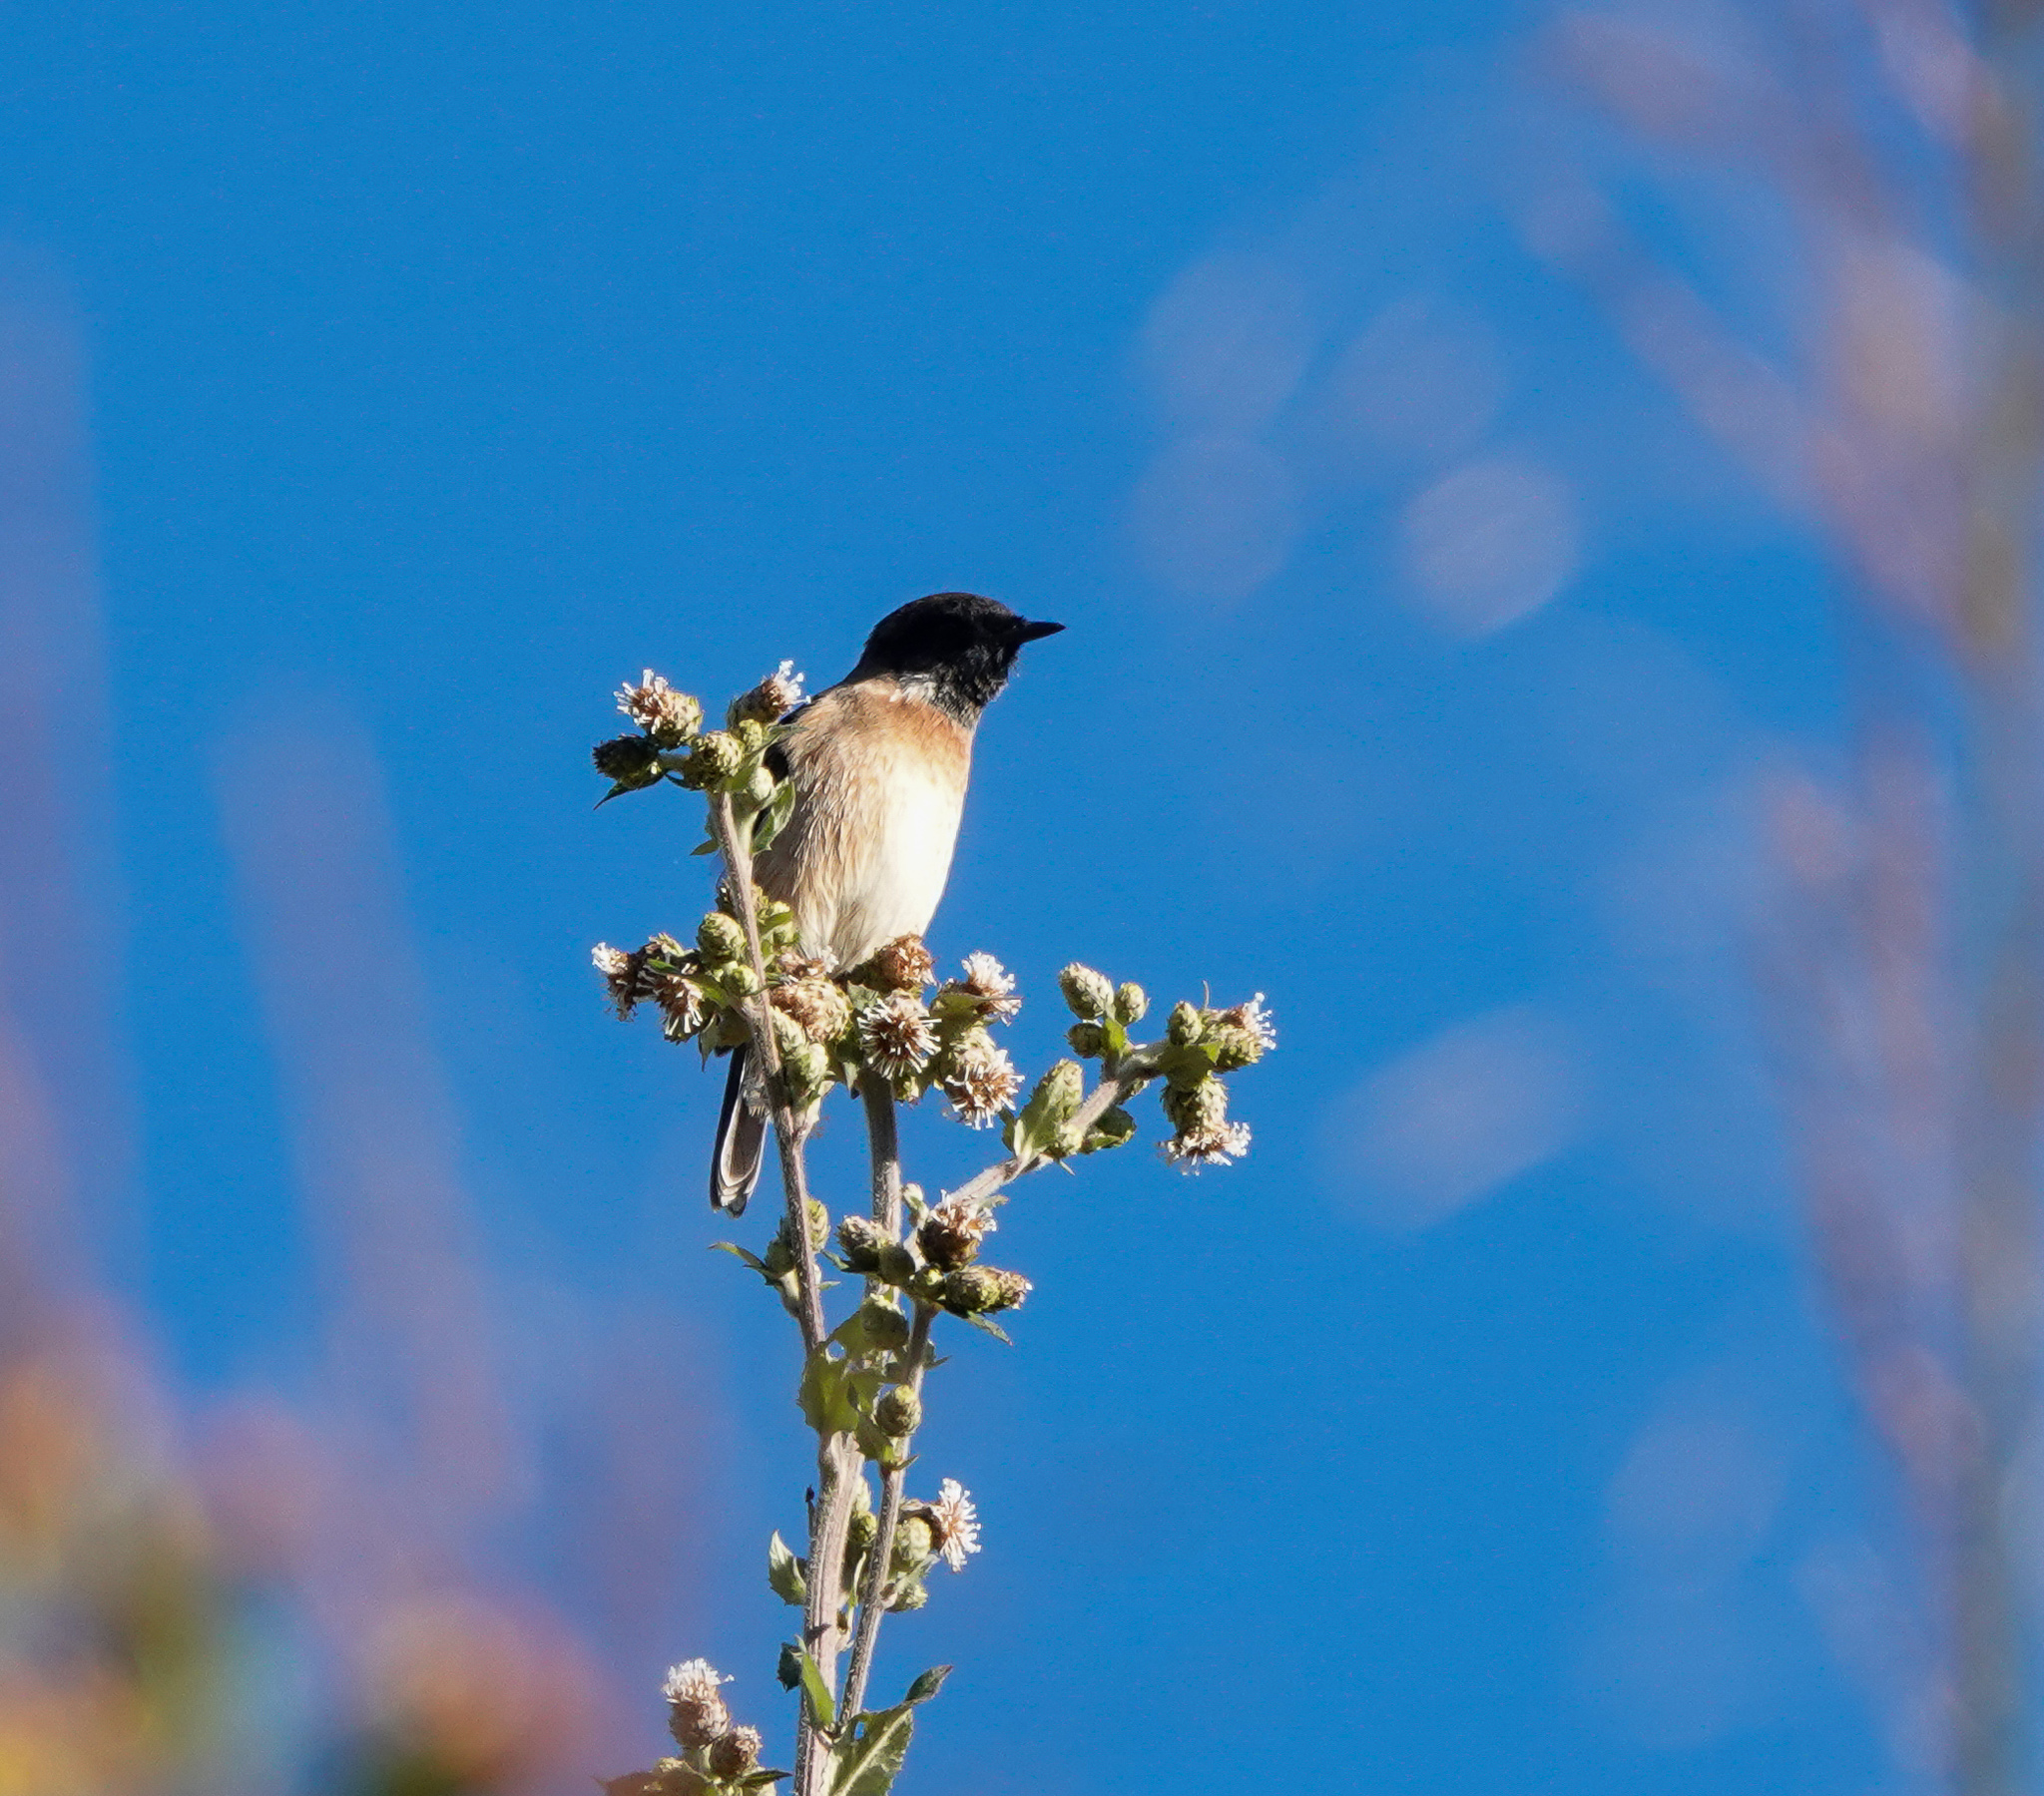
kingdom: Animalia
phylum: Chordata
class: Aves
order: Passeriformes
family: Muscicapidae
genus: Saxicola
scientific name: Saxicola maurus
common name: Siberian stonechat
